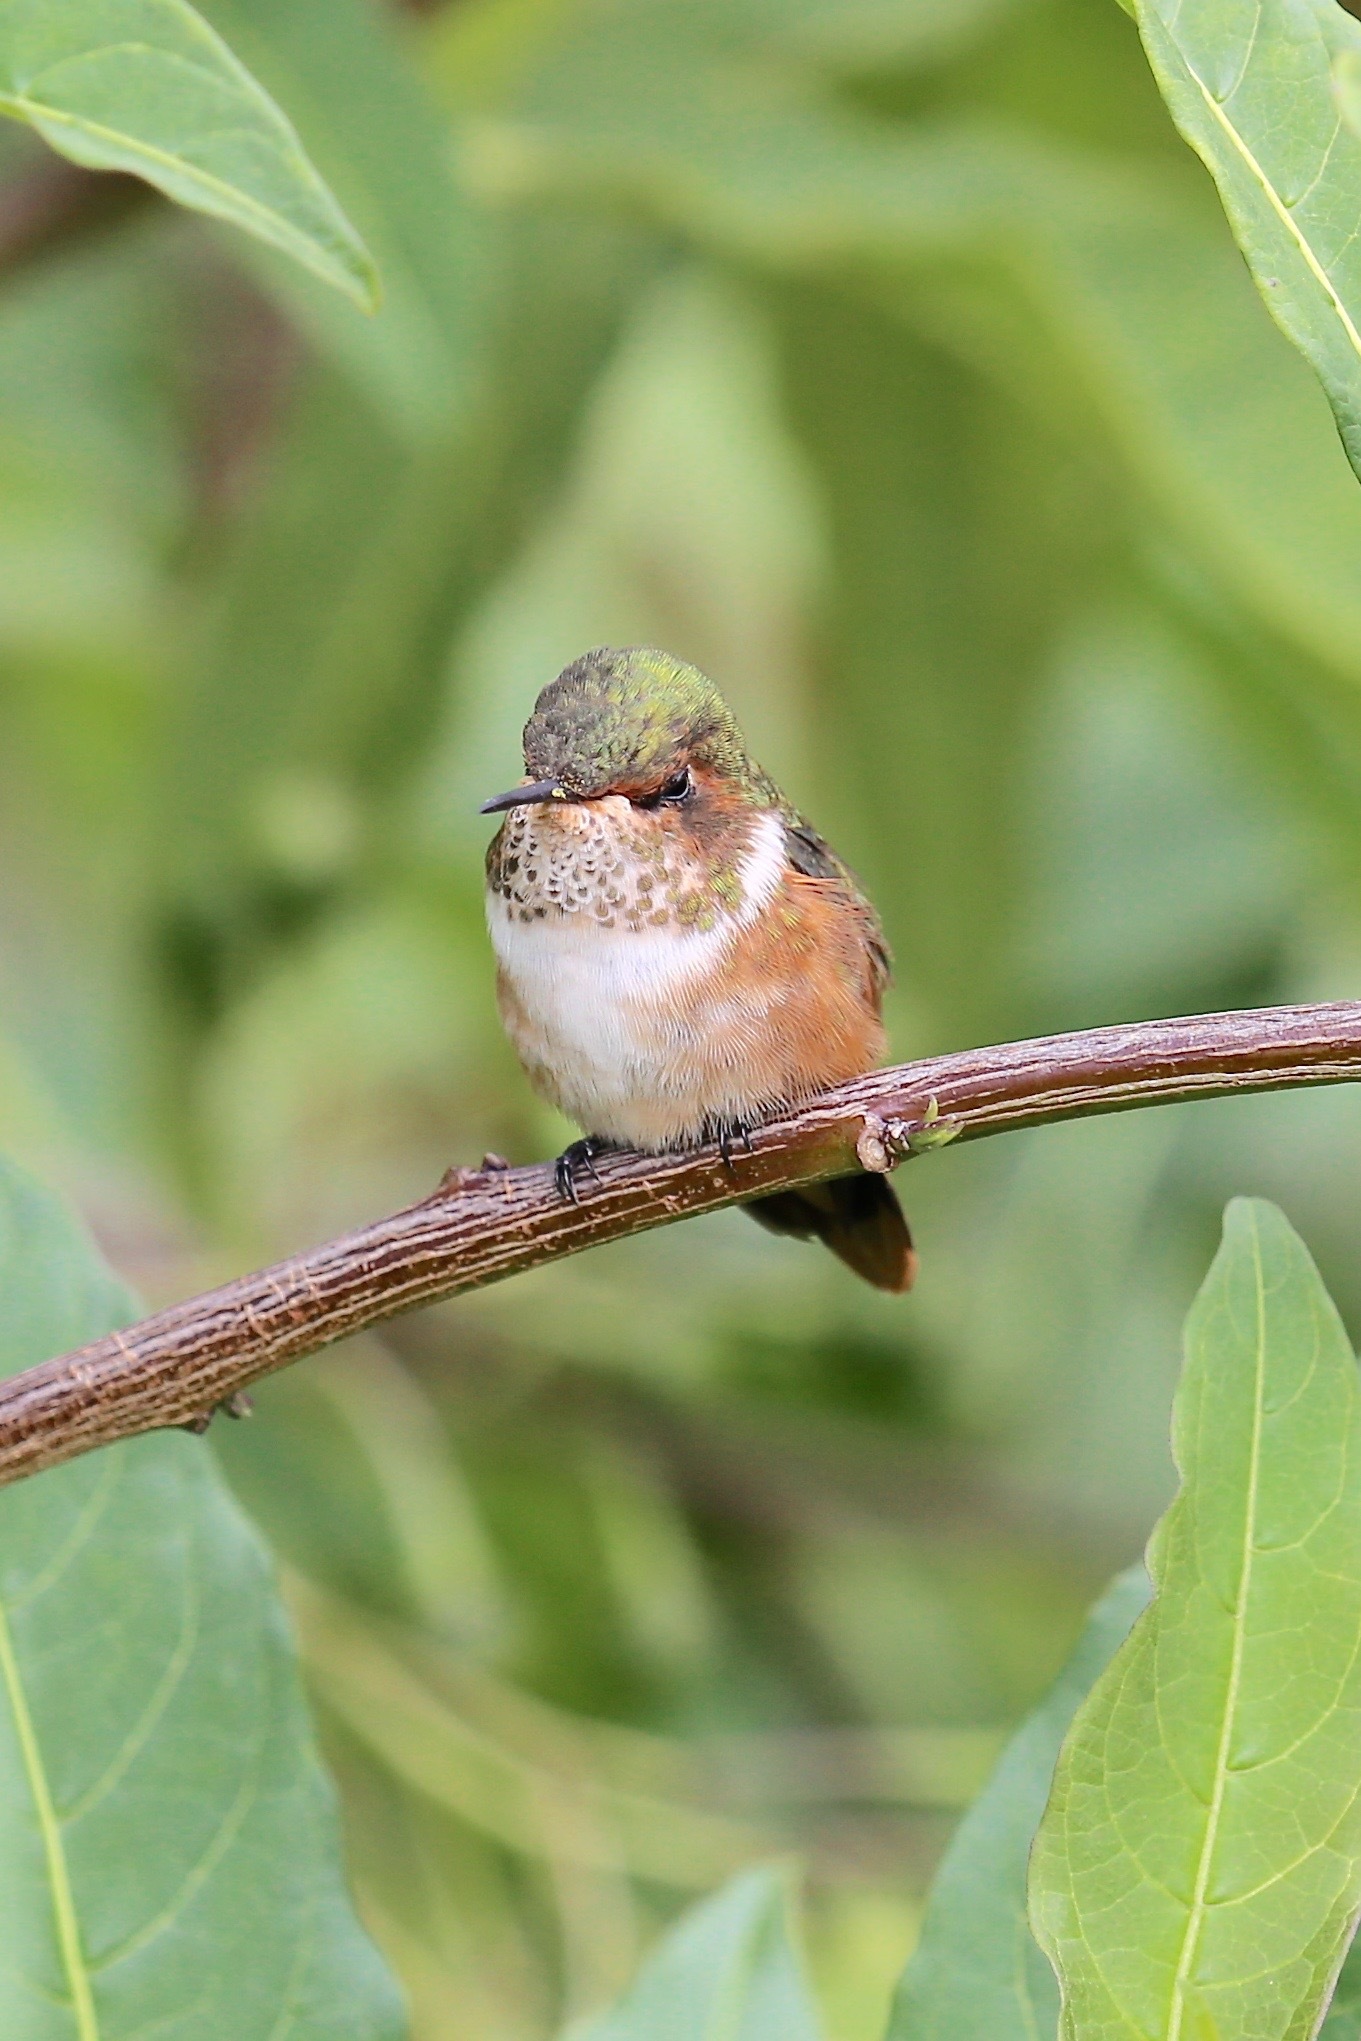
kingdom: Animalia
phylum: Chordata
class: Aves
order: Apodiformes
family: Trochilidae
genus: Selasphorus
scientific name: Selasphorus flammula
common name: Volcano hummingbird
